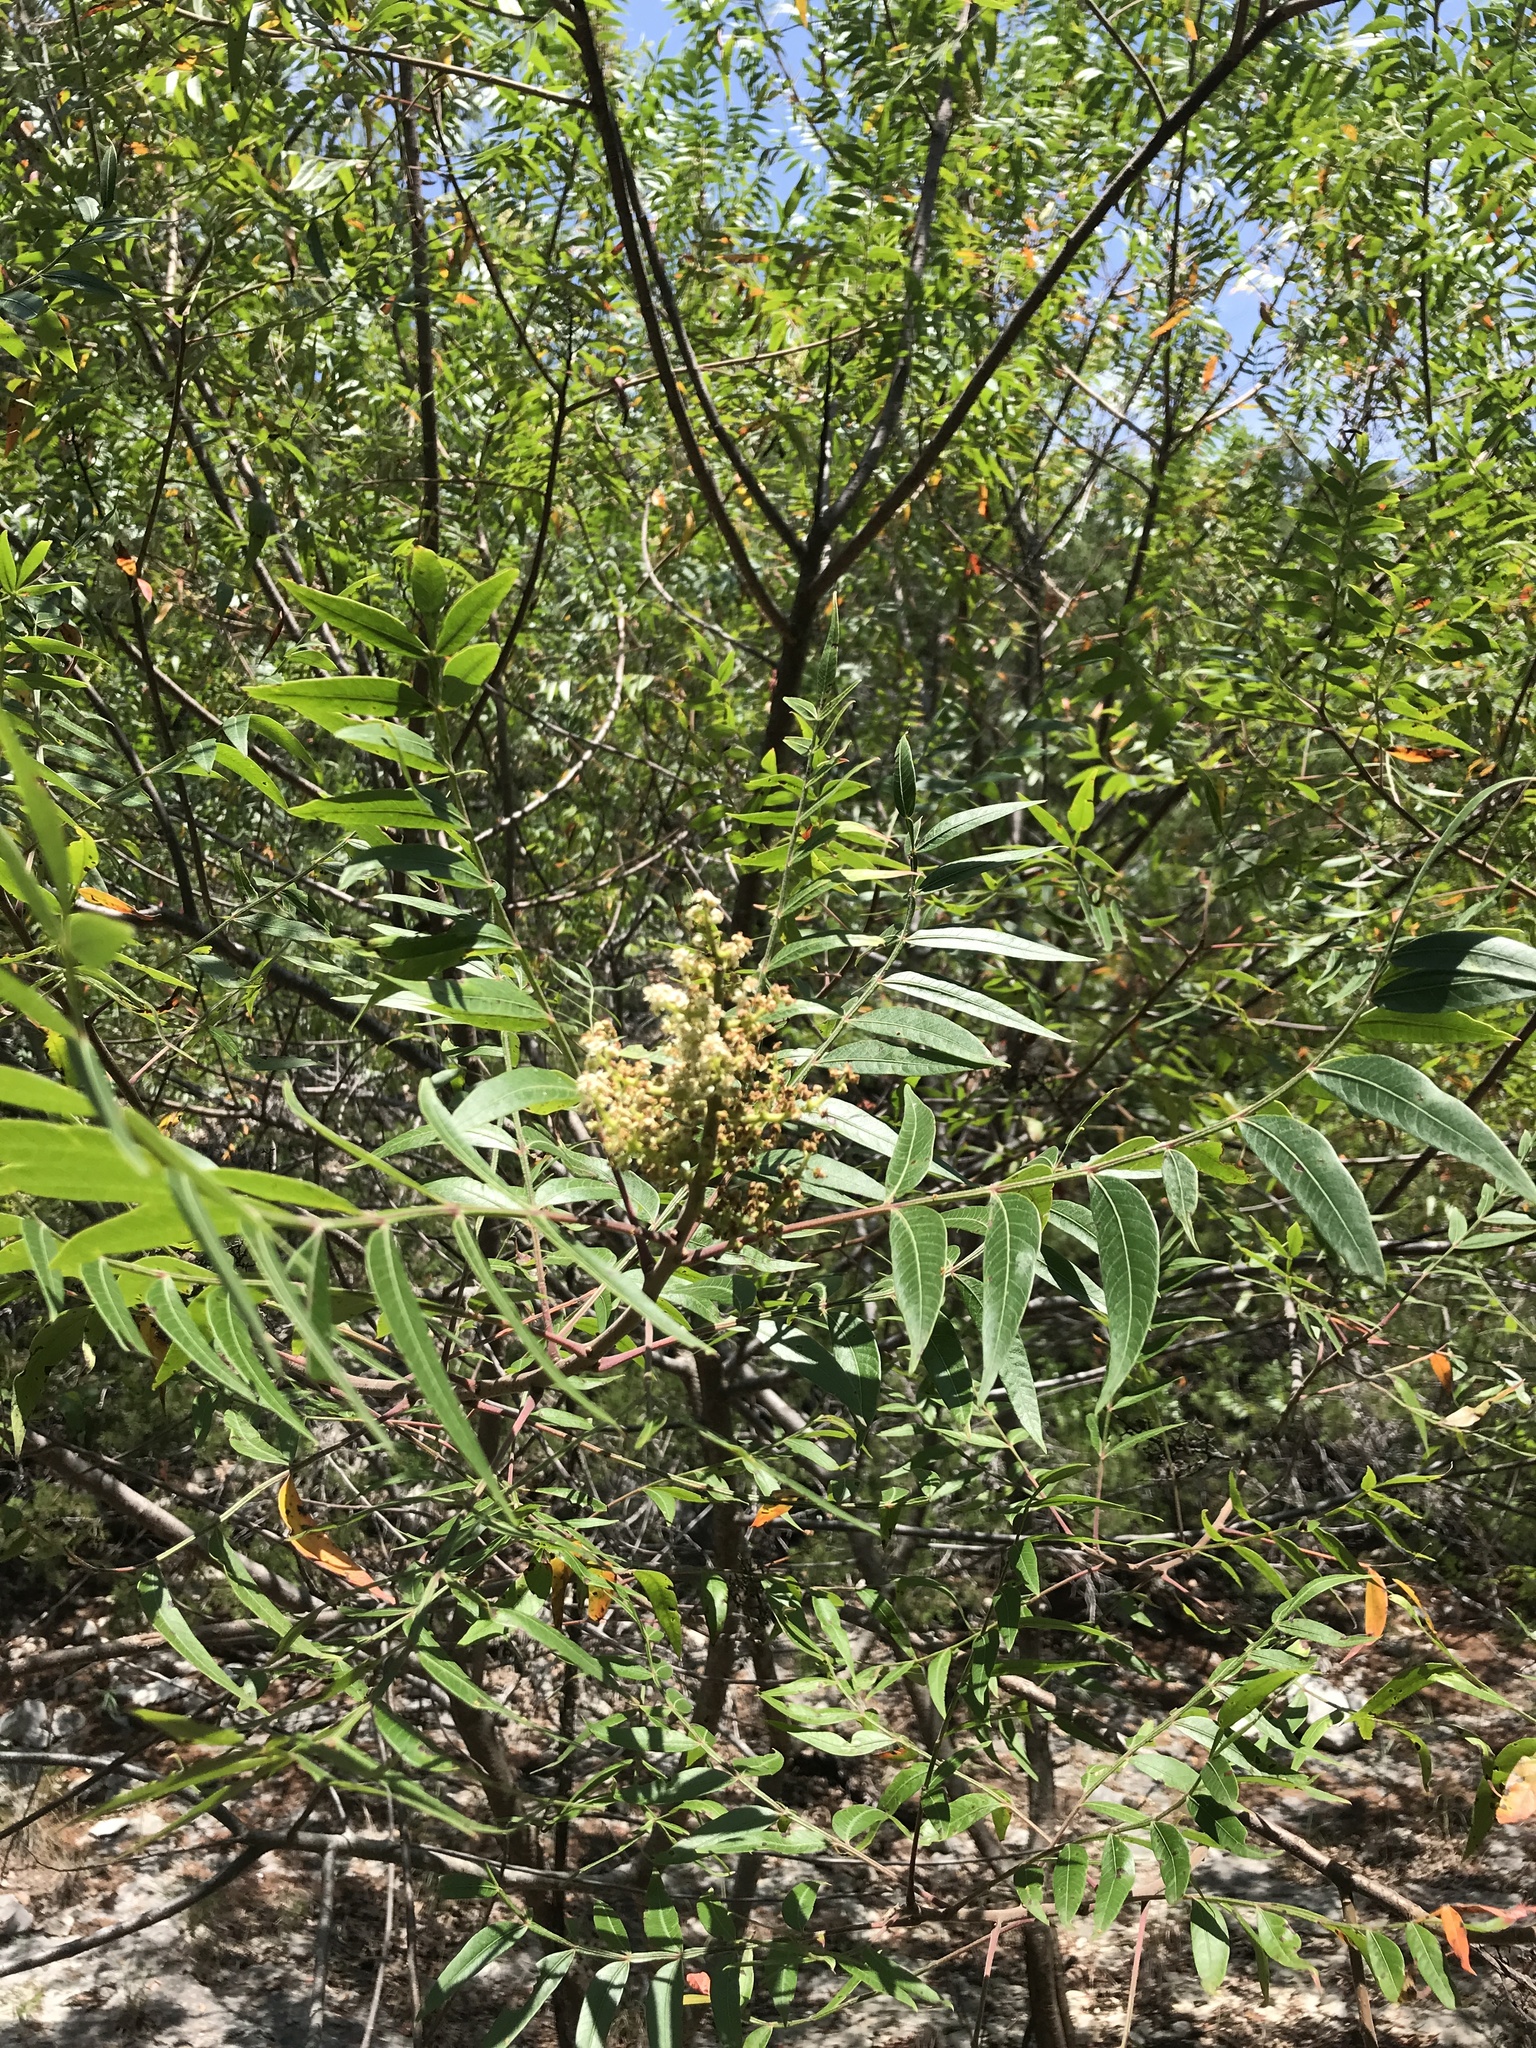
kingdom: Plantae
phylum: Tracheophyta
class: Magnoliopsida
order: Sapindales
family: Anacardiaceae
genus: Rhus
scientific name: Rhus lanceolata
